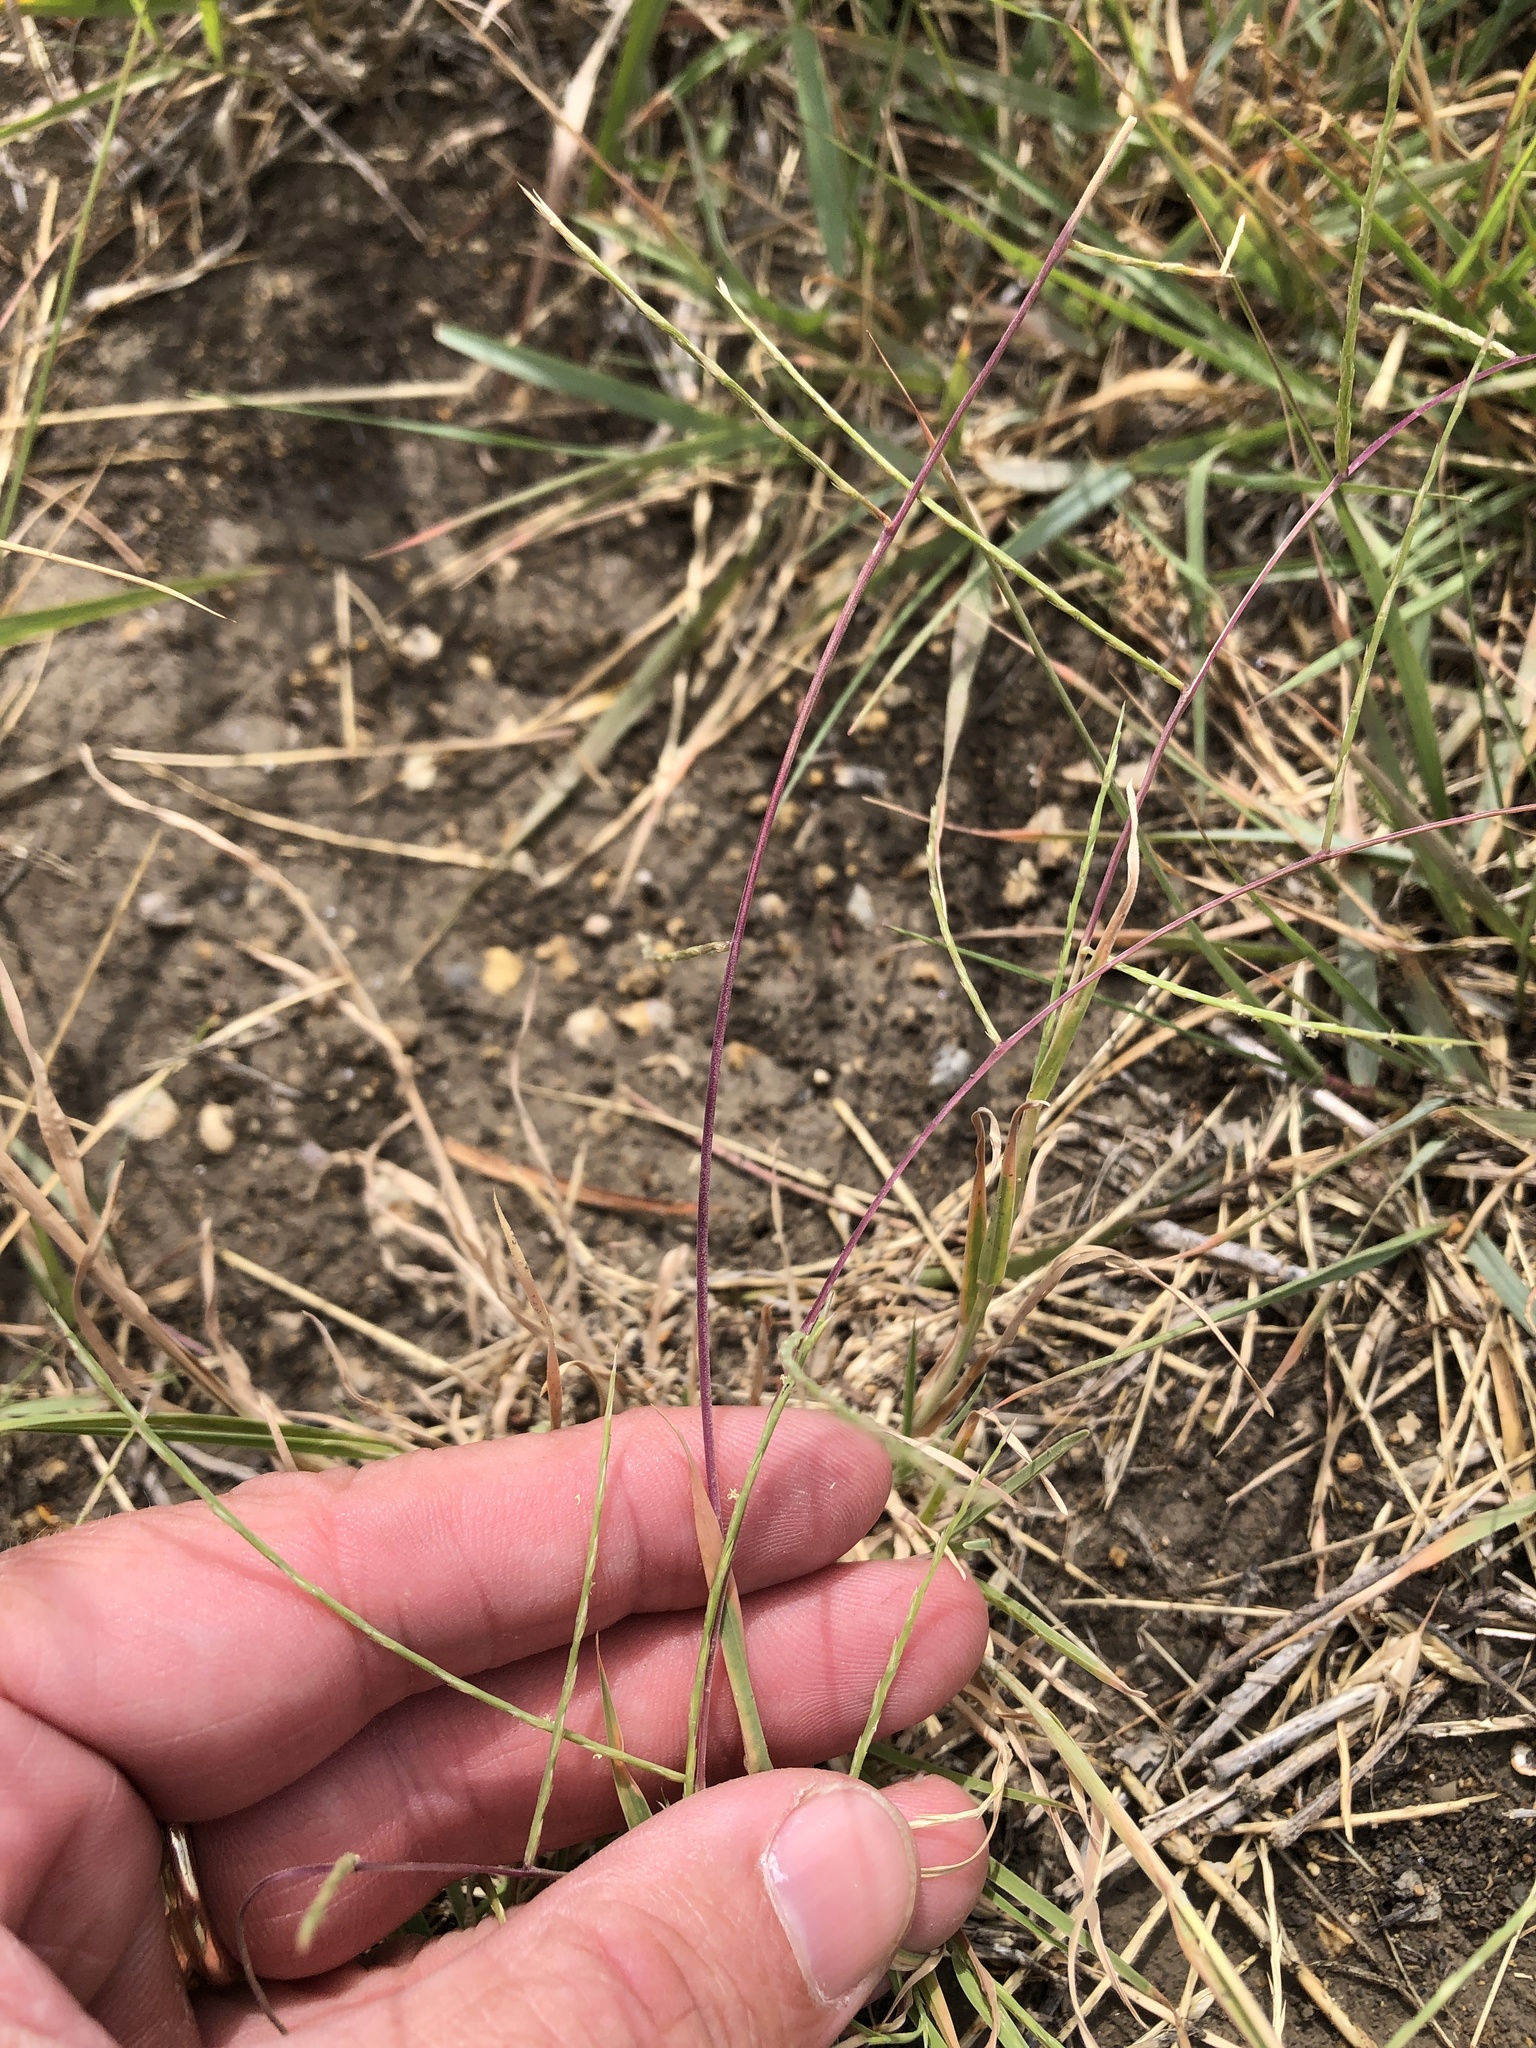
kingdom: Plantae
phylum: Tracheophyta
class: Liliopsida
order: Poales
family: Poaceae
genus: Muhlenbergia
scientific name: Muhlenbergia paniculata
